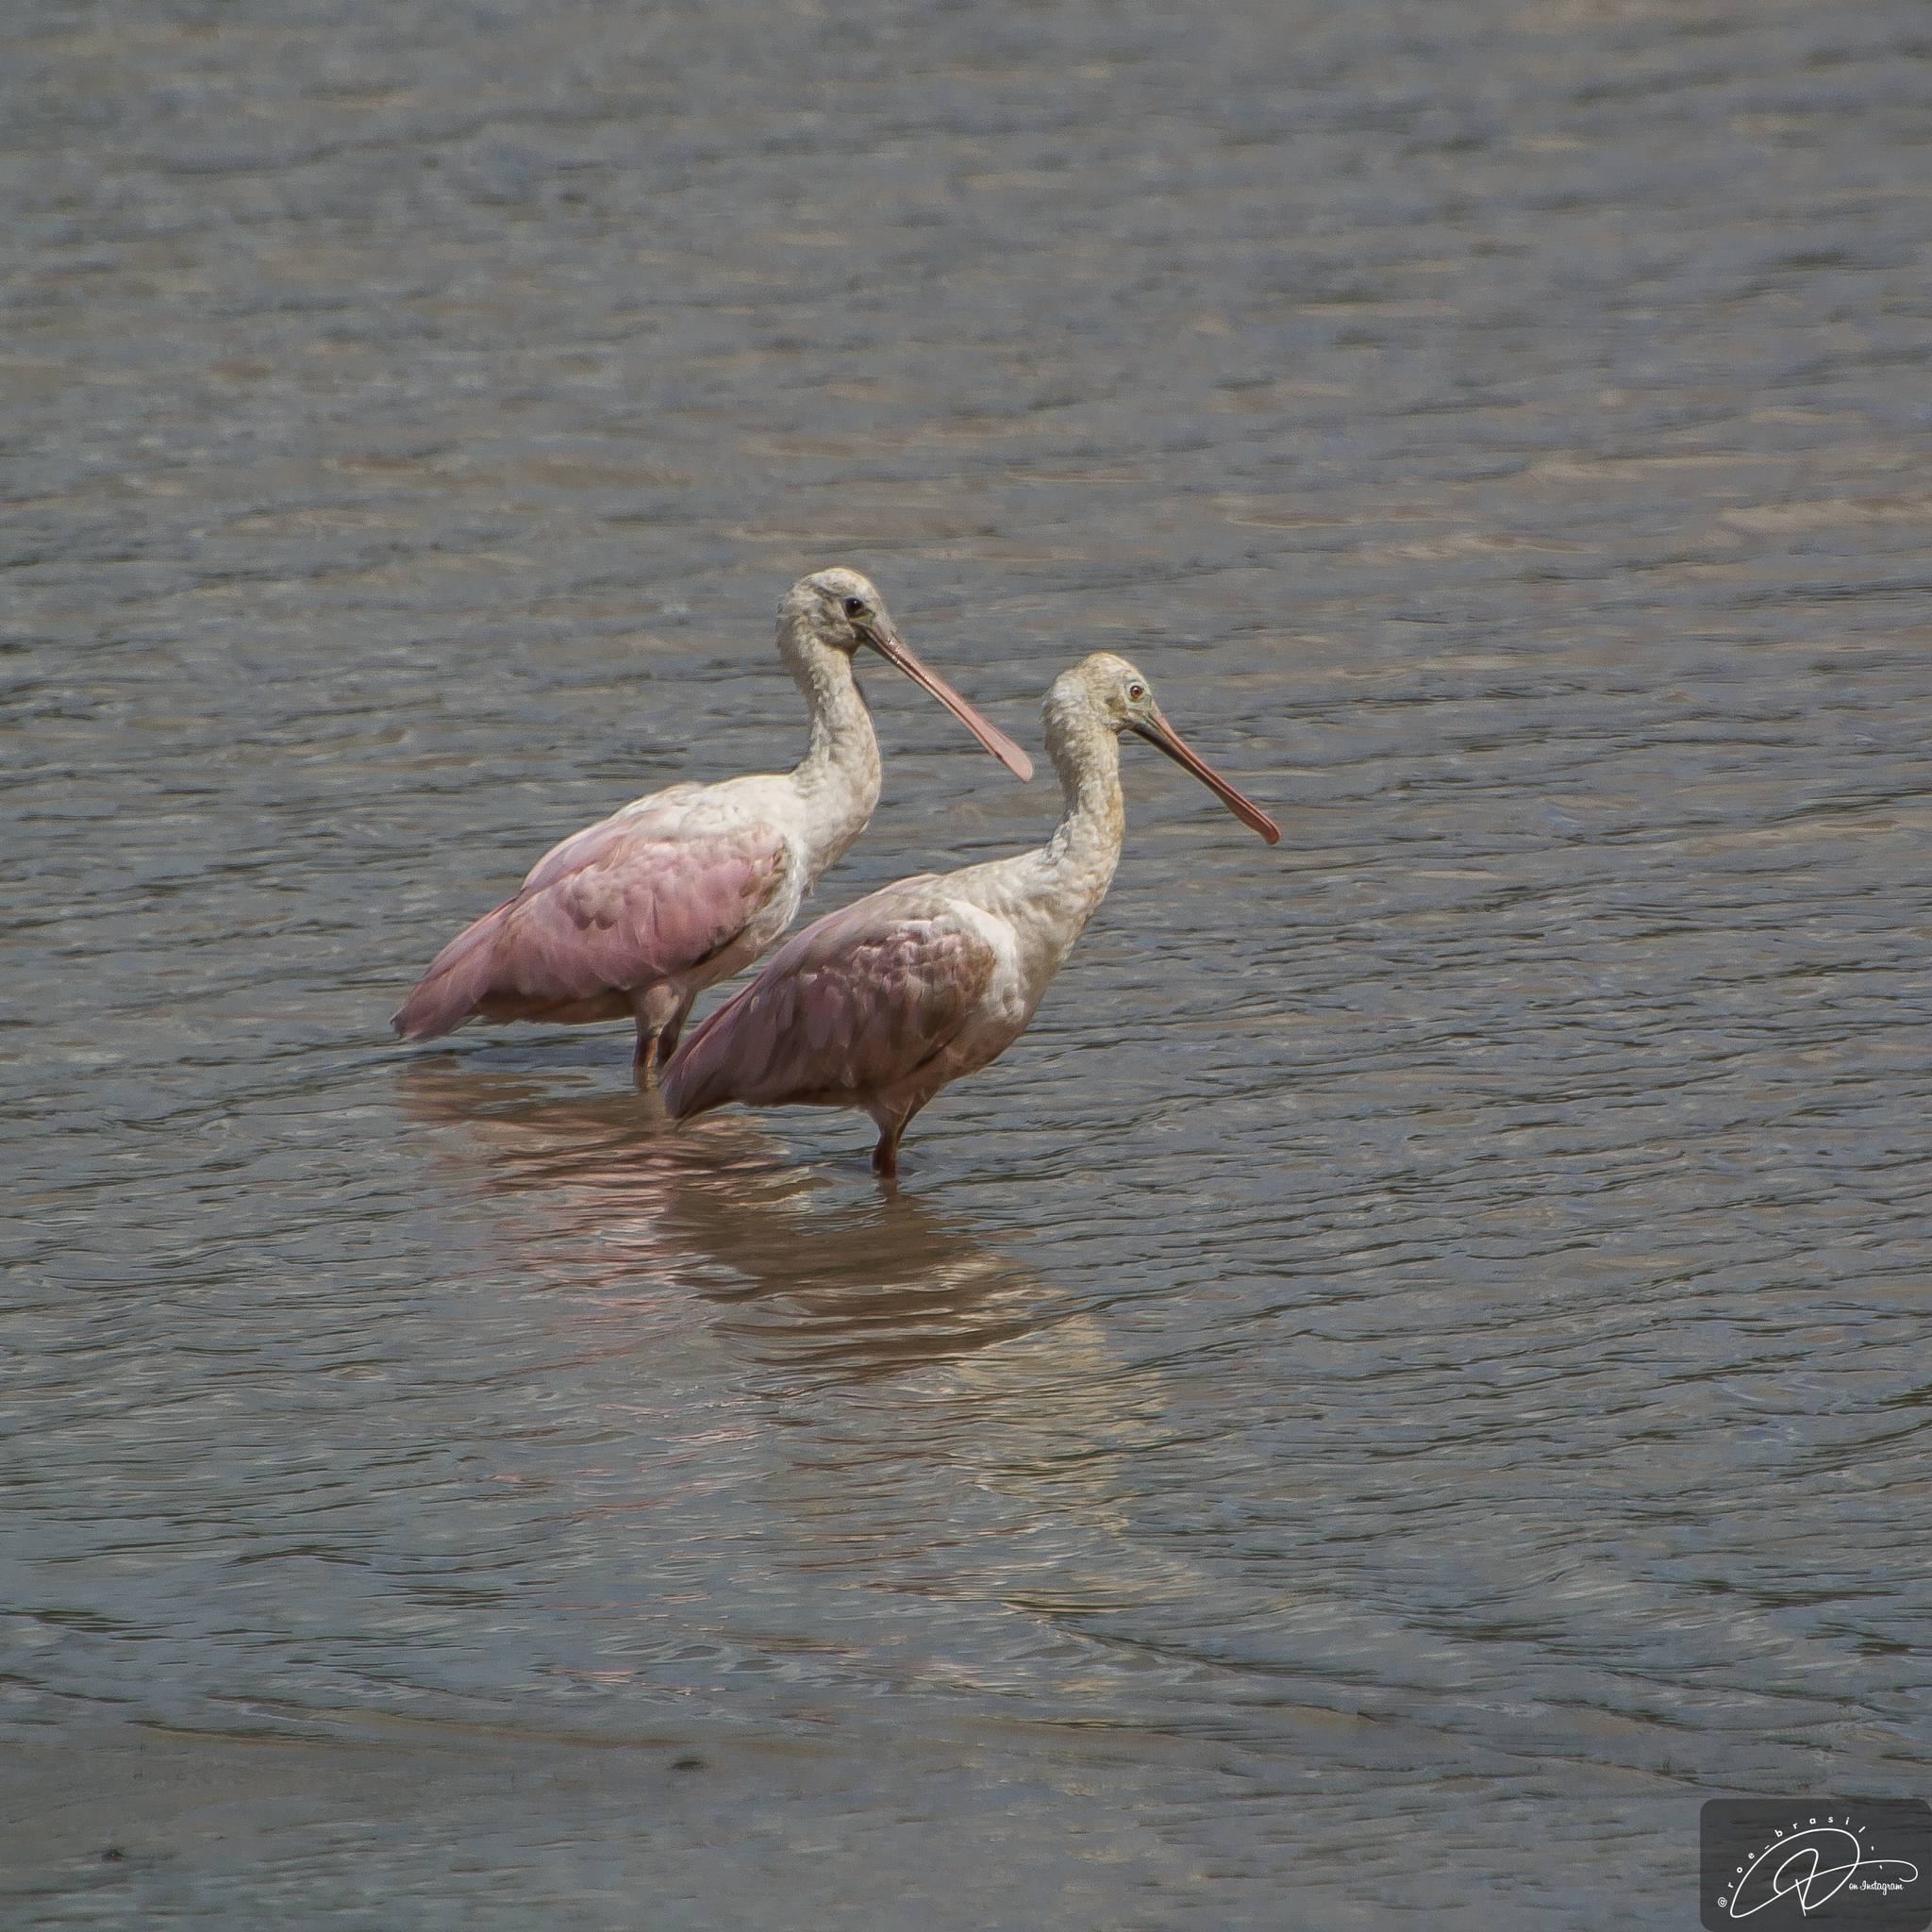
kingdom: Animalia
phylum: Chordata
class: Aves
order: Pelecaniformes
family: Threskiornithidae
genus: Platalea
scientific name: Platalea ajaja
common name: Roseate spoonbill
